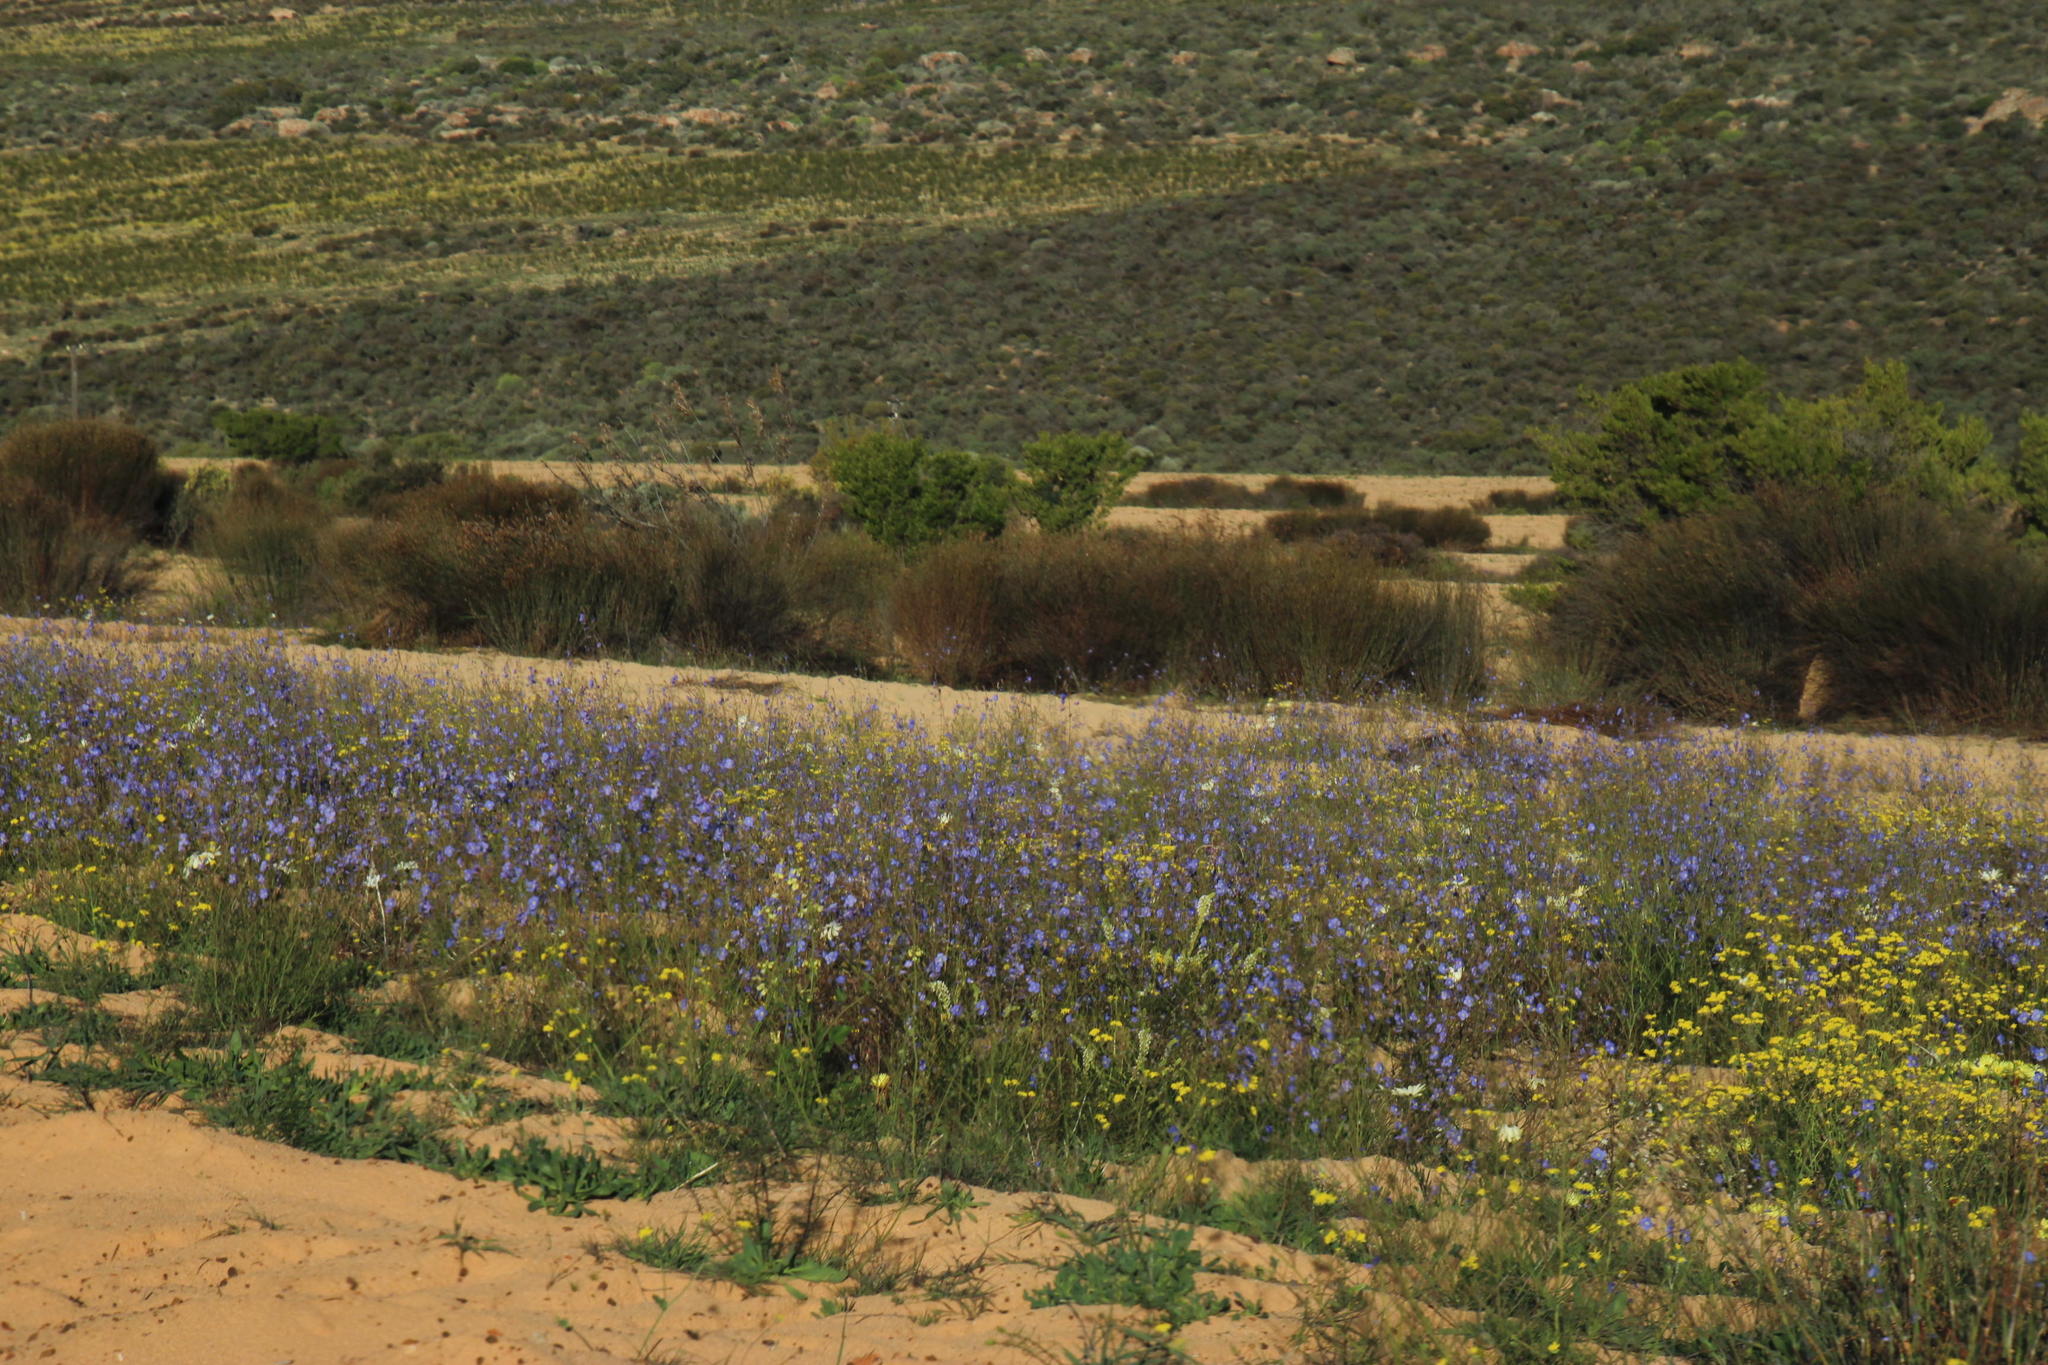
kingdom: Plantae
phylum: Tracheophyta
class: Magnoliopsida
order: Brassicales
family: Brassicaceae
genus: Heliophila
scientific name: Heliophila arenaria
